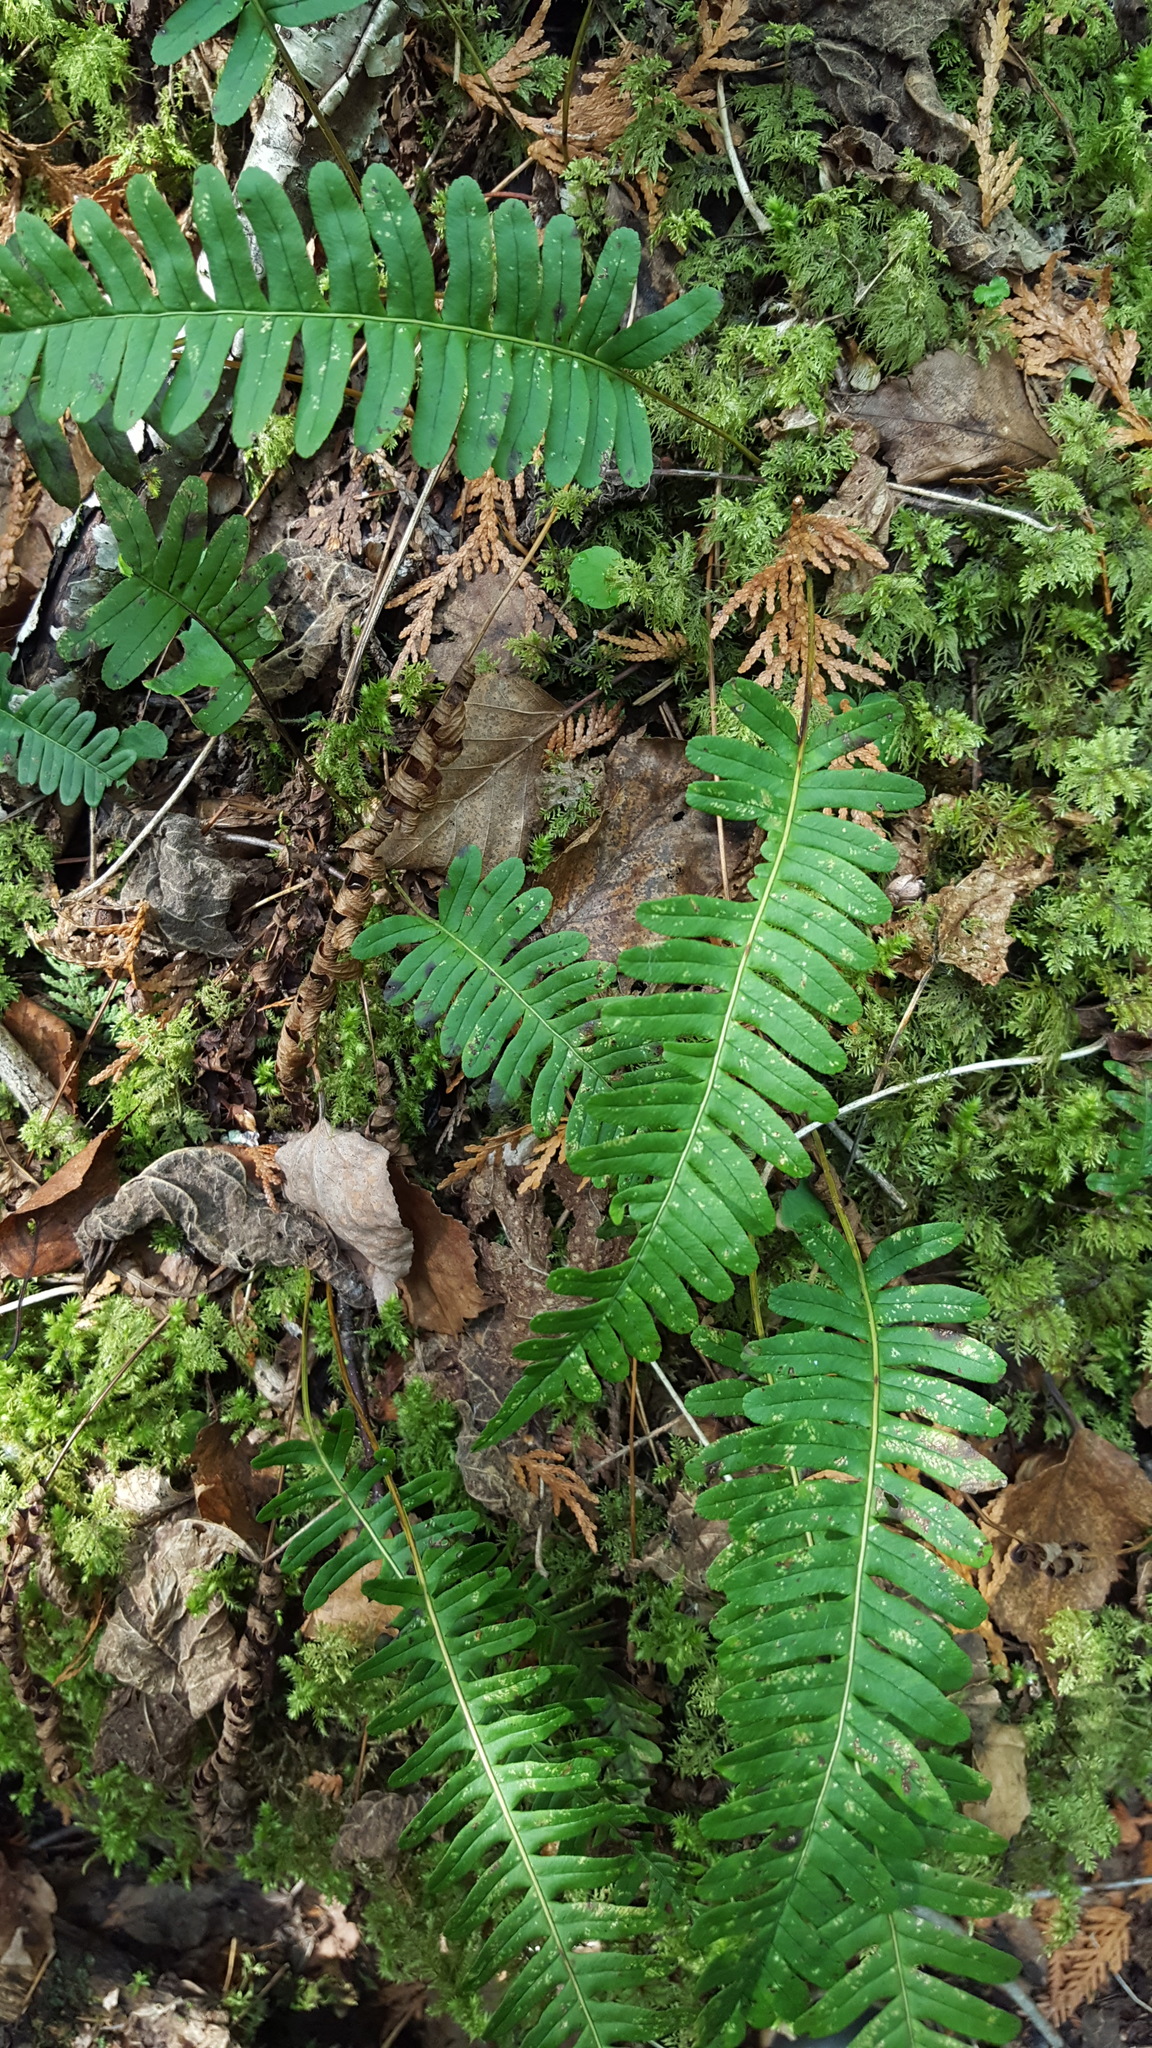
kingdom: Plantae
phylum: Tracheophyta
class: Polypodiopsida
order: Polypodiales
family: Polypodiaceae
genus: Polypodium
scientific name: Polypodium virginianum
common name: American wall fern
